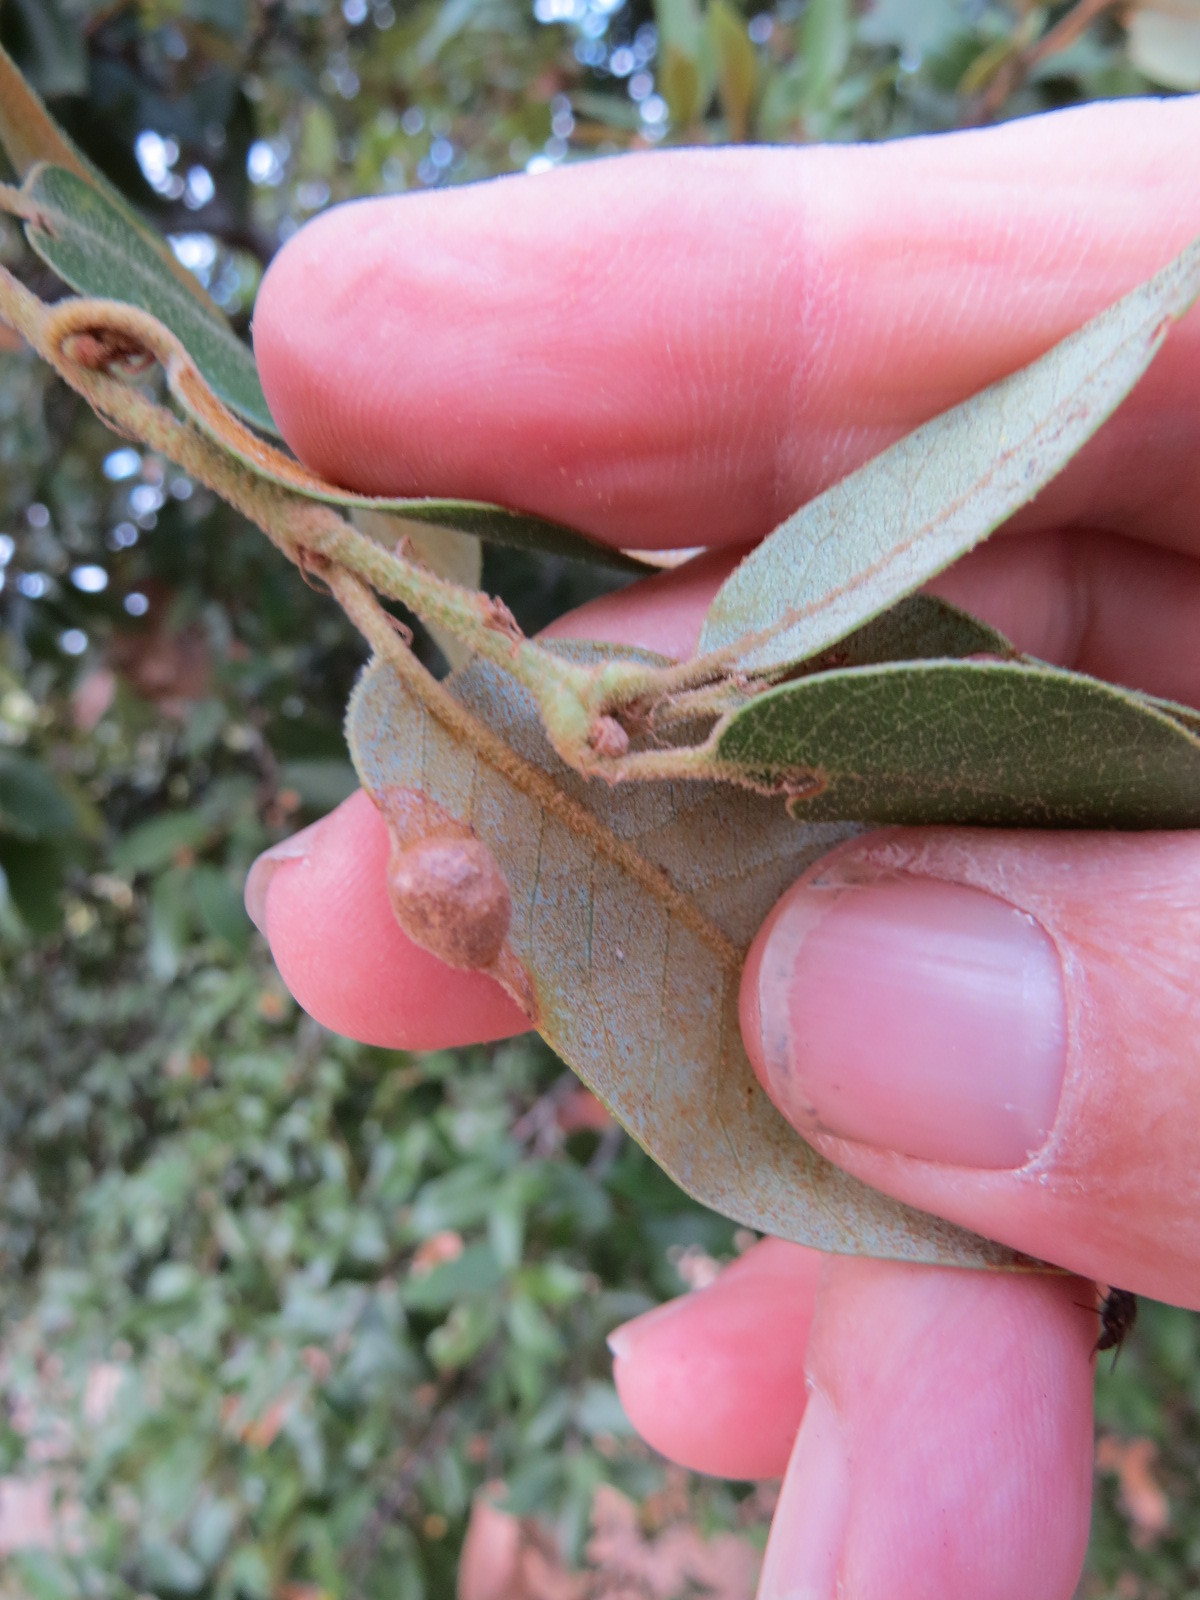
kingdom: Animalia
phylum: Arthropoda
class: Insecta
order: Hymenoptera
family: Cynipidae
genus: Heteroecus
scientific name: Heteroecus
